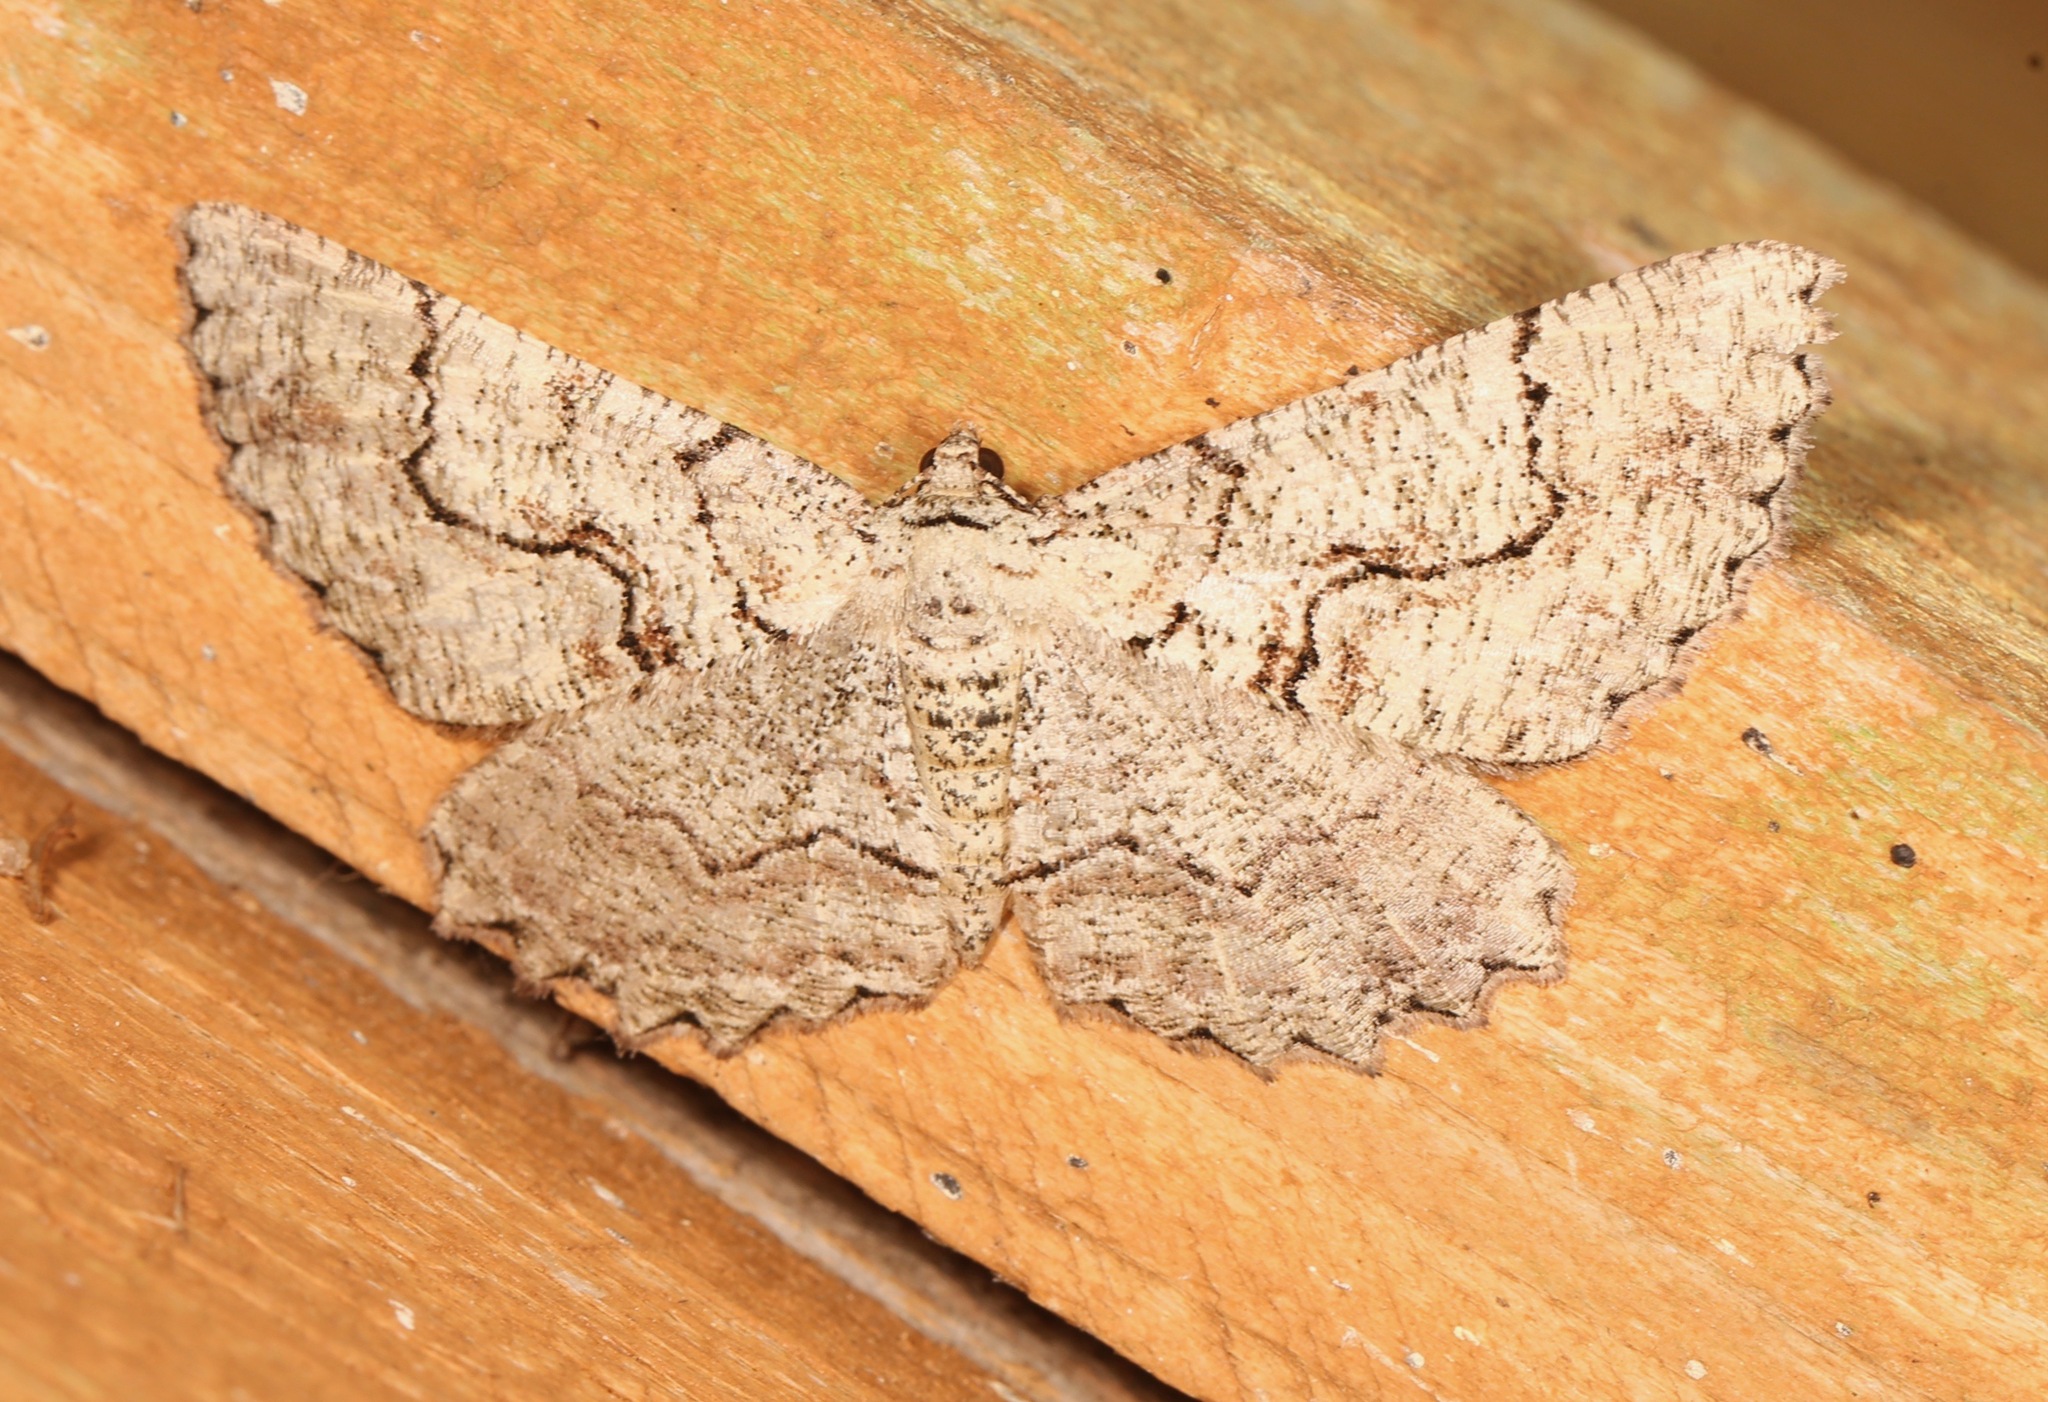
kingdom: Animalia
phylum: Arthropoda
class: Insecta
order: Lepidoptera
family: Geometridae
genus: Cymatophora
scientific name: Cymatophora approximaria
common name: Giant gray moth
